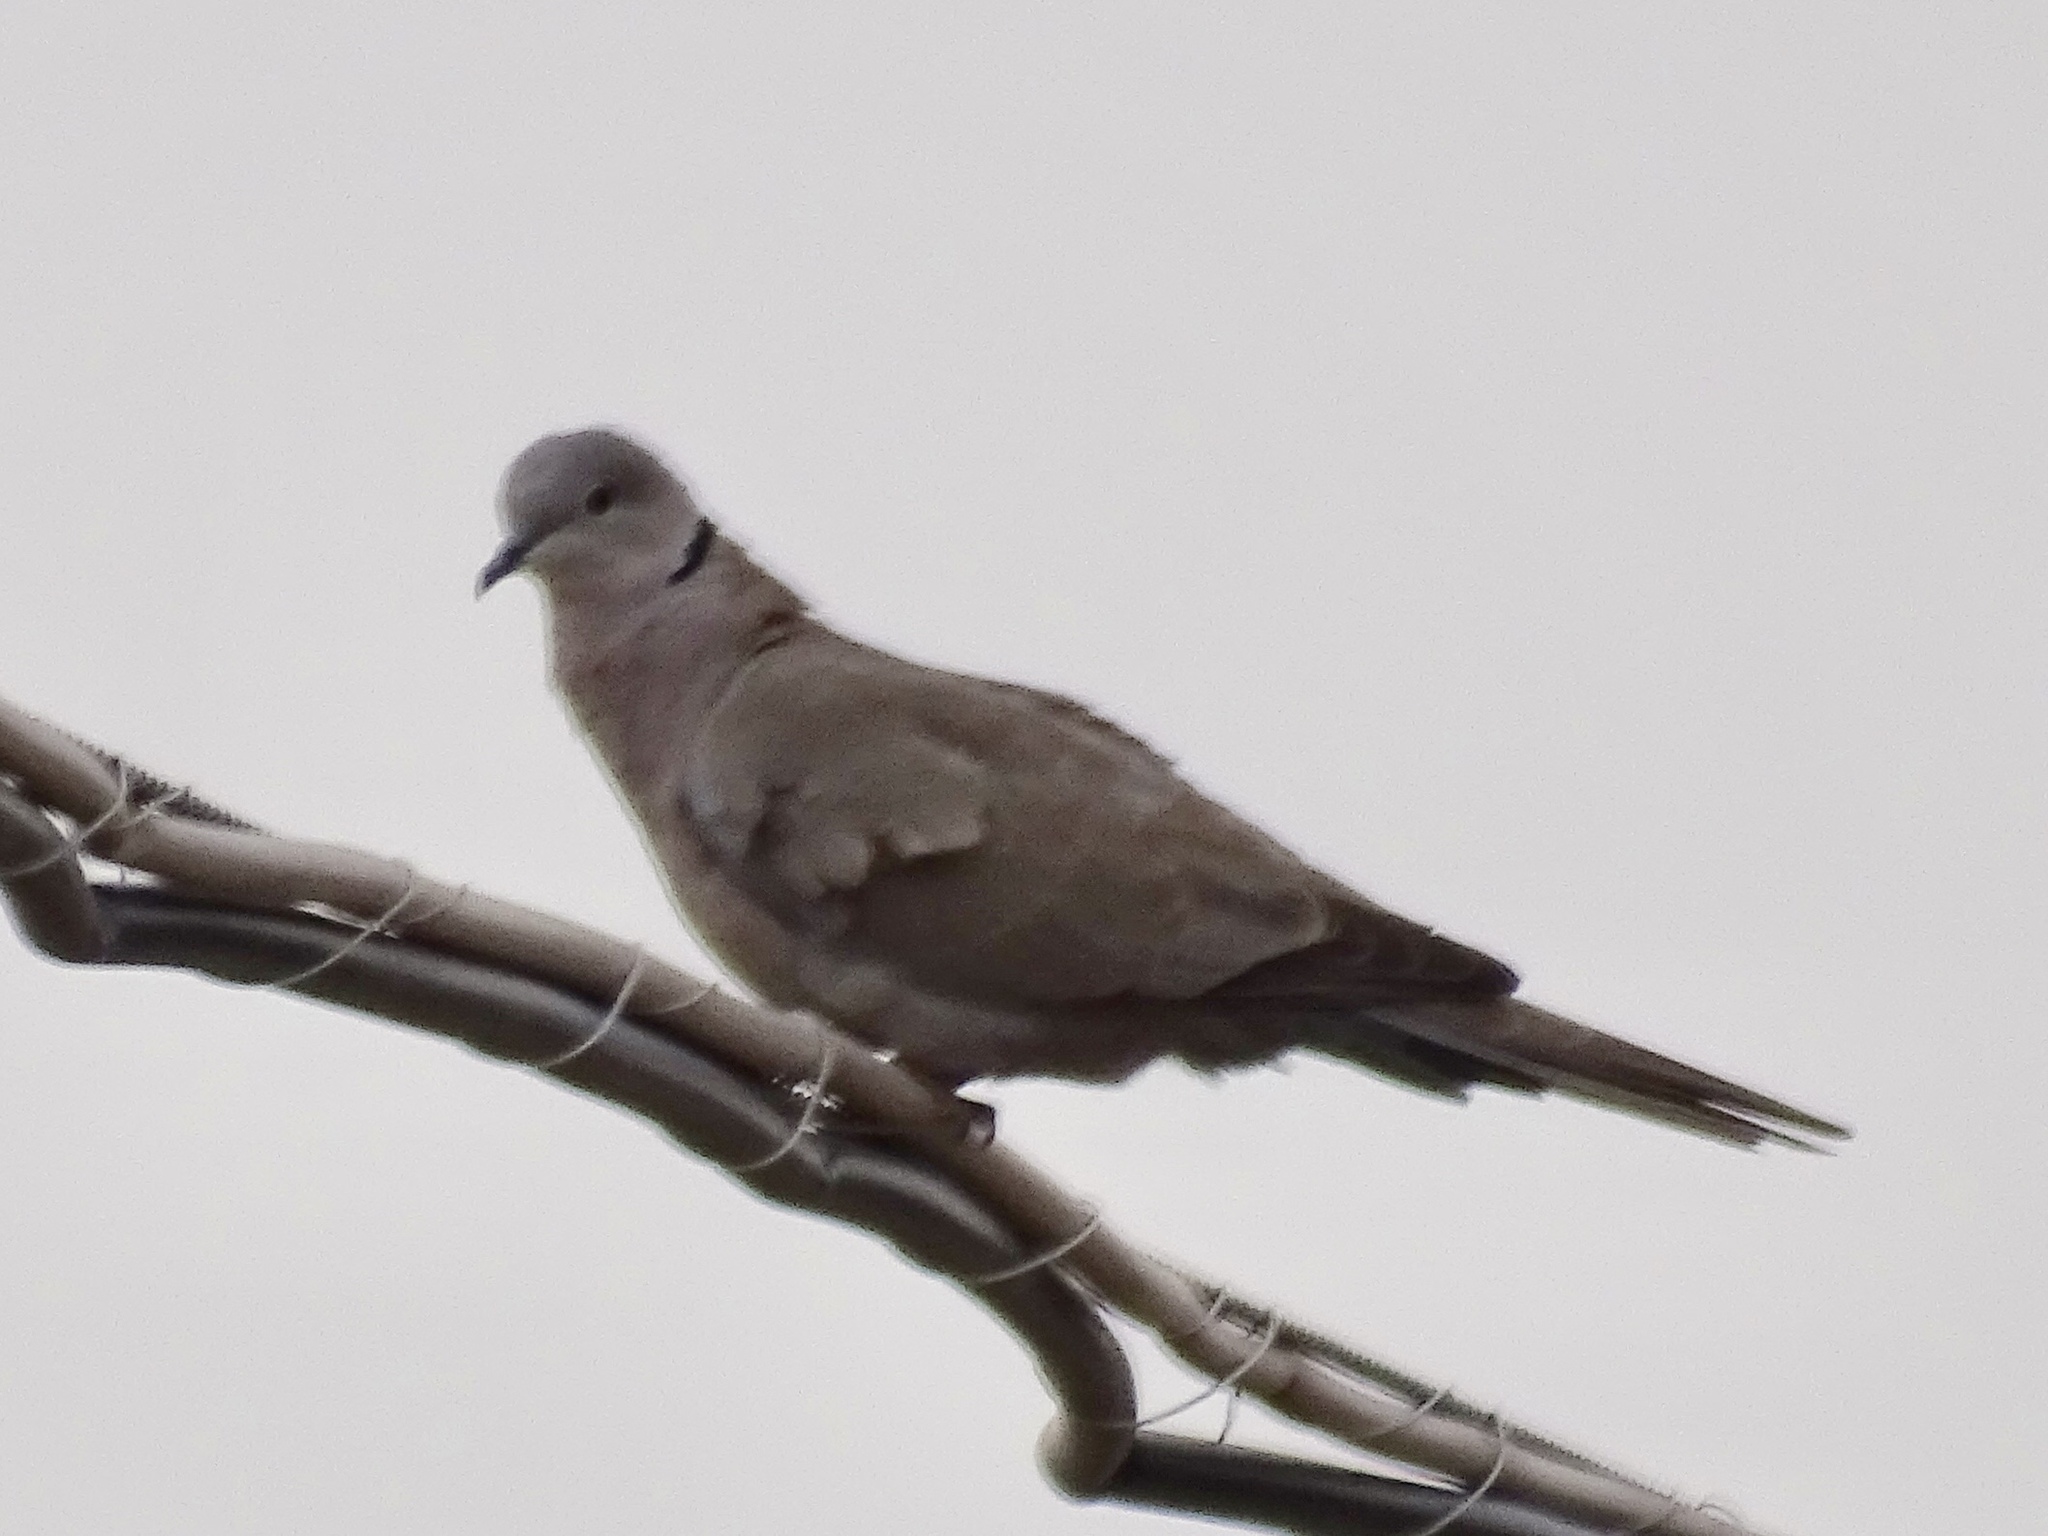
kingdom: Animalia
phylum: Chordata
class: Aves
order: Columbiformes
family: Columbidae
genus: Streptopelia
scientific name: Streptopelia decaocto
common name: Eurasian collared dove
